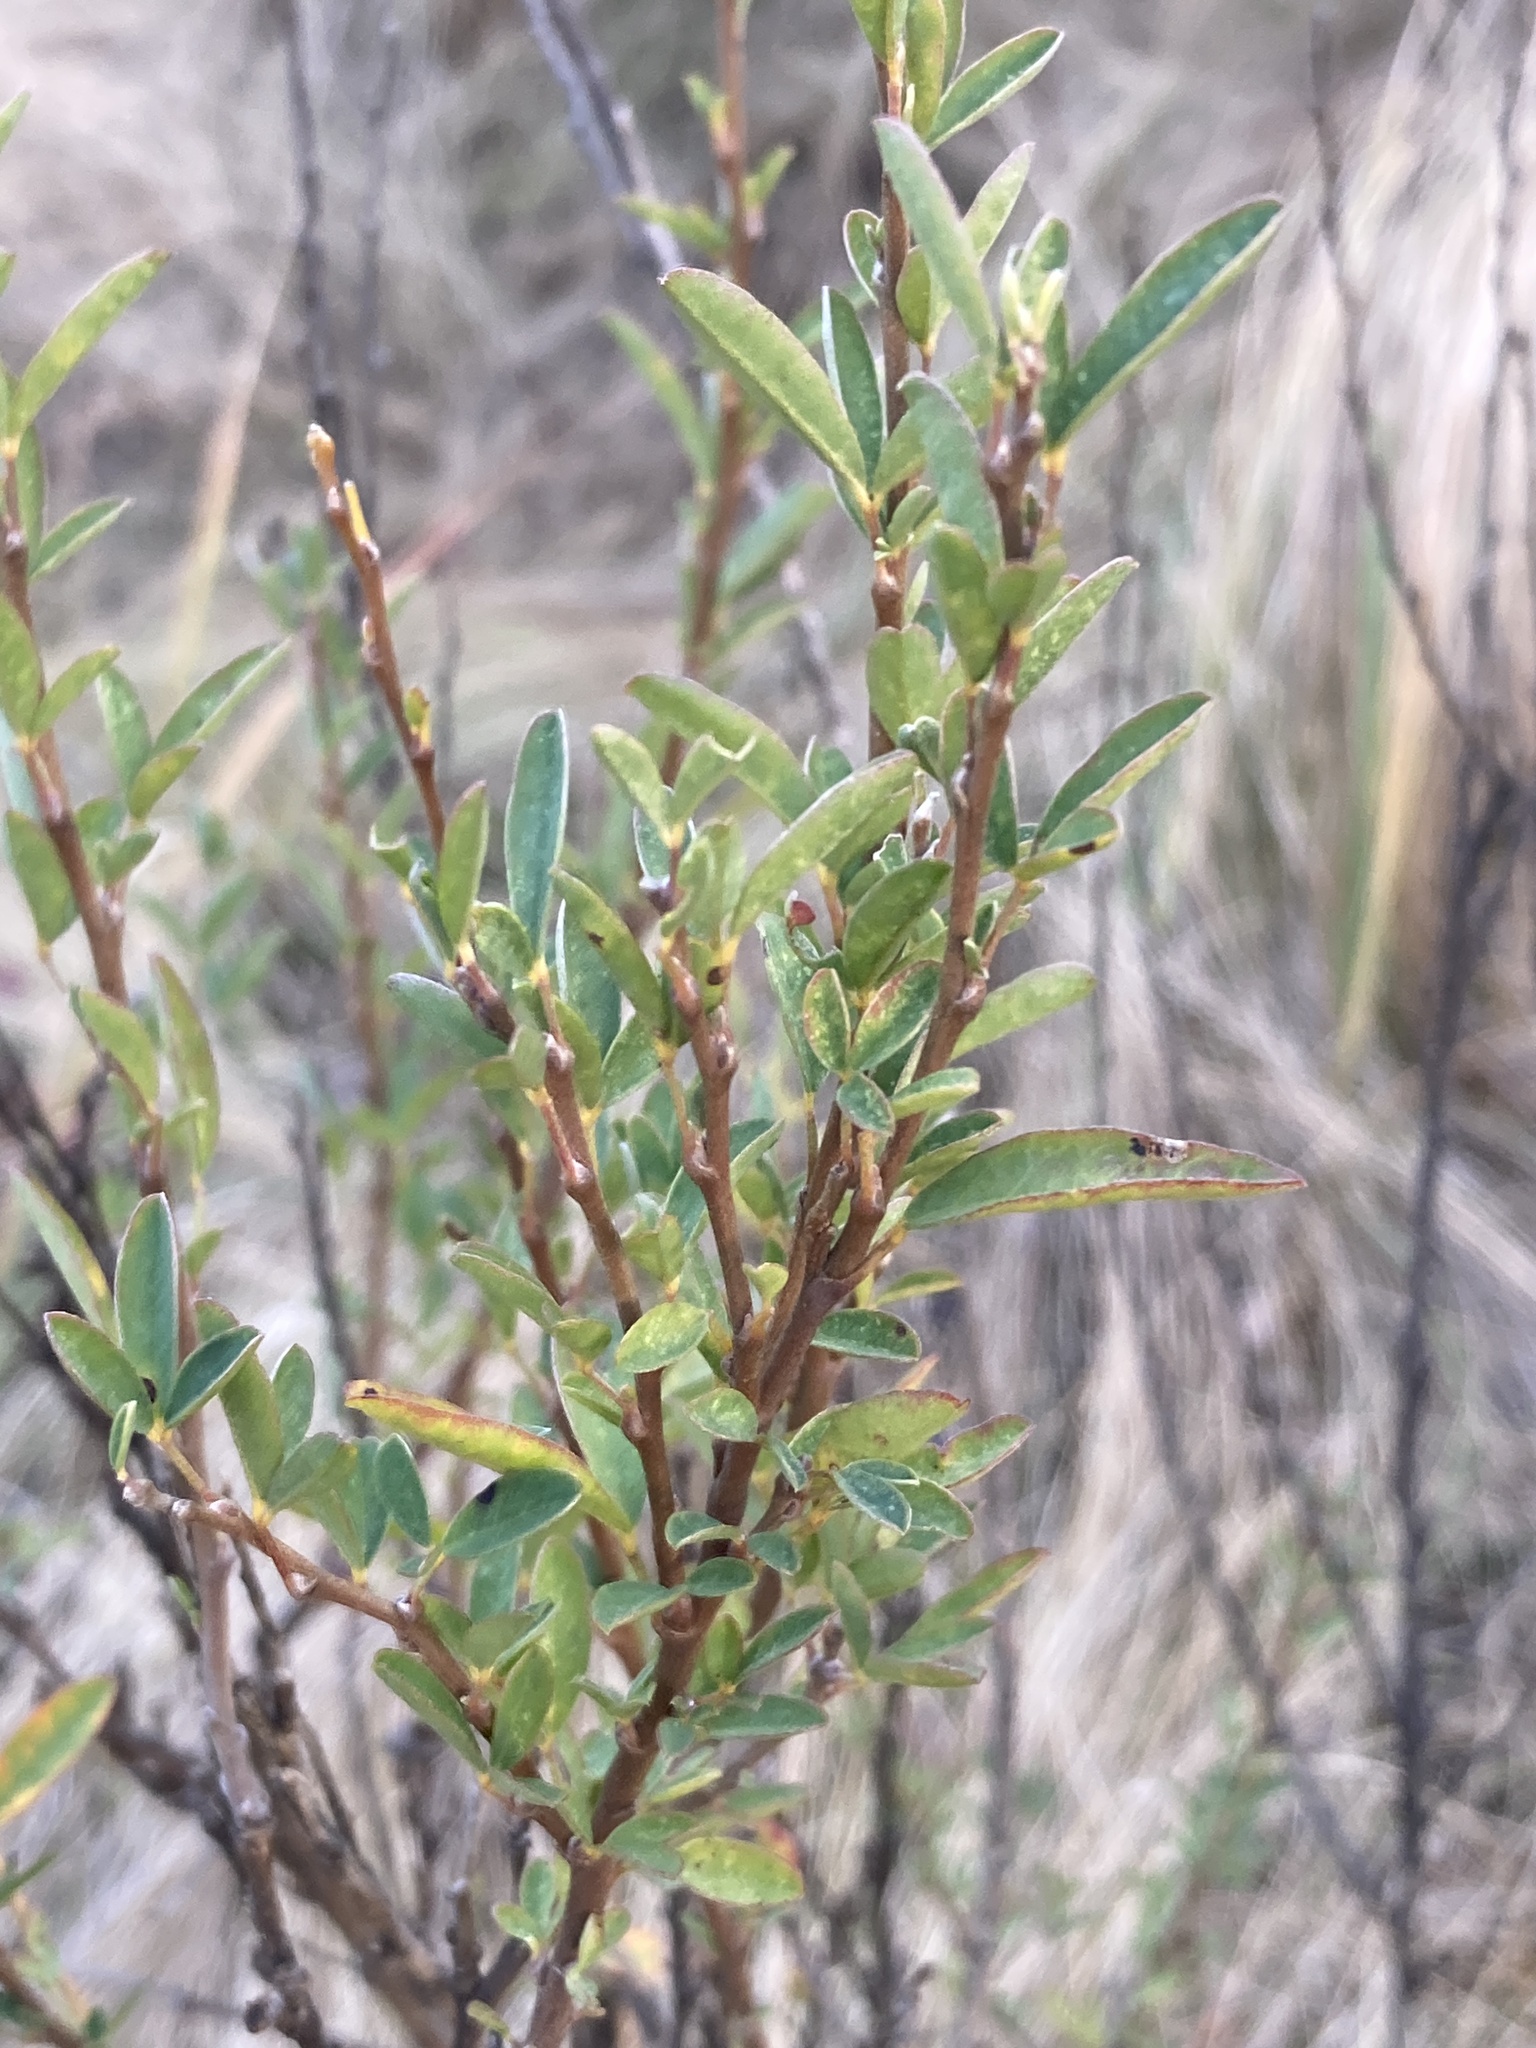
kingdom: Plantae
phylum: Tracheophyta
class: Magnoliopsida
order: Fabales
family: Fabaceae
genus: Chamaecytisus
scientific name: Chamaecytisus ruthenicus
